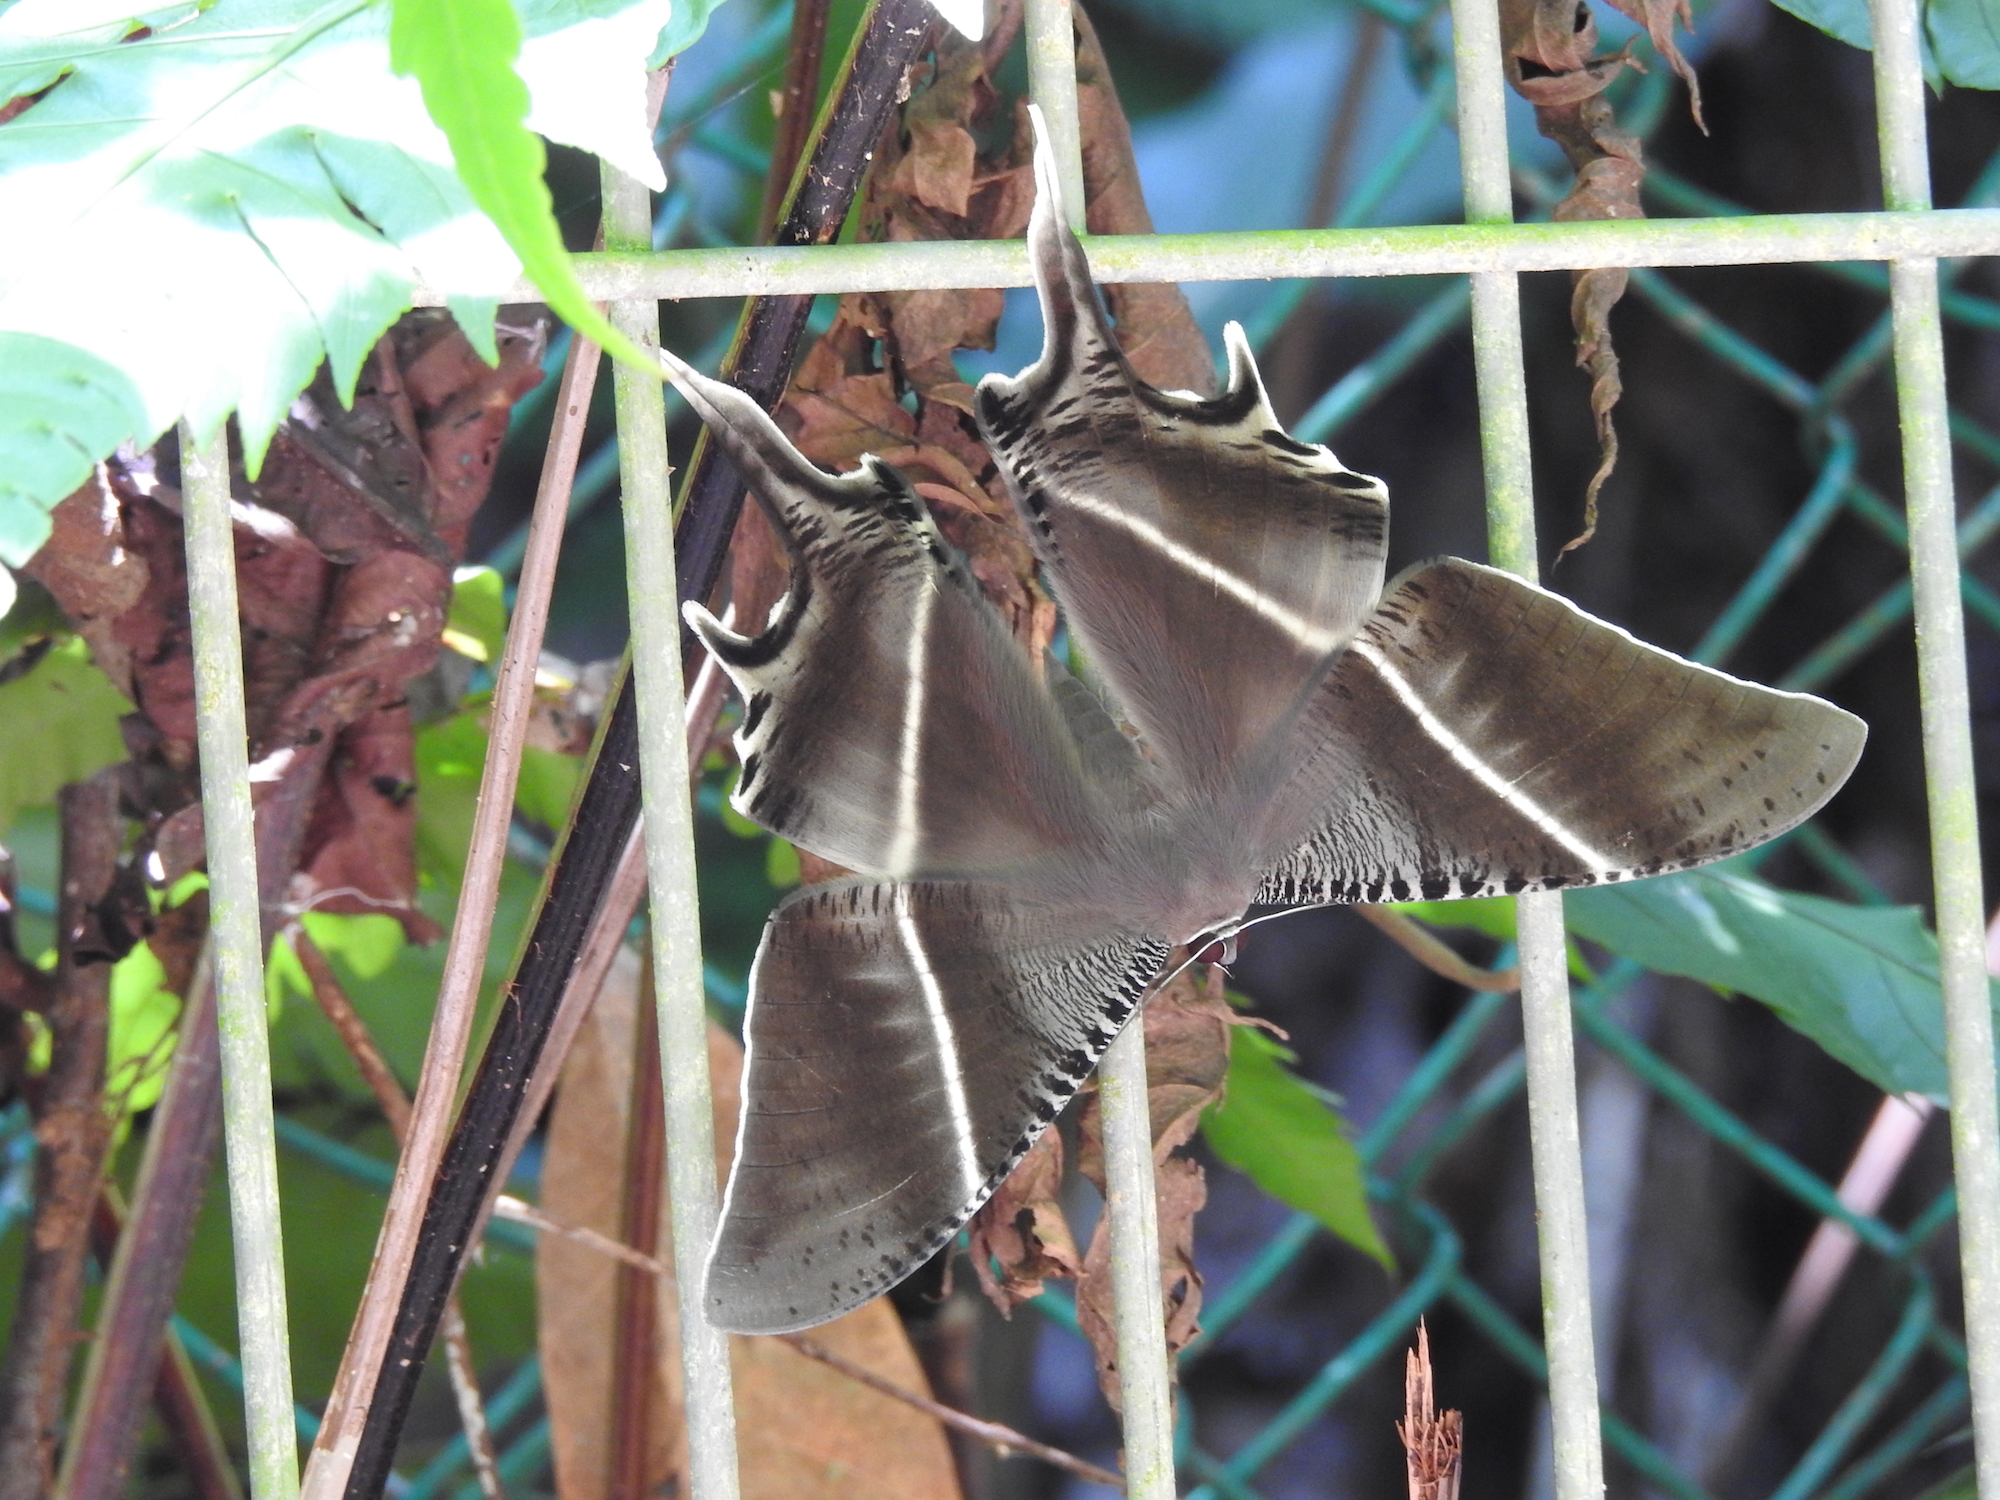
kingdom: Animalia
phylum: Arthropoda
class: Insecta
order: Lepidoptera
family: Uraniidae
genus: Lyssa
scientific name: Lyssa zampa
